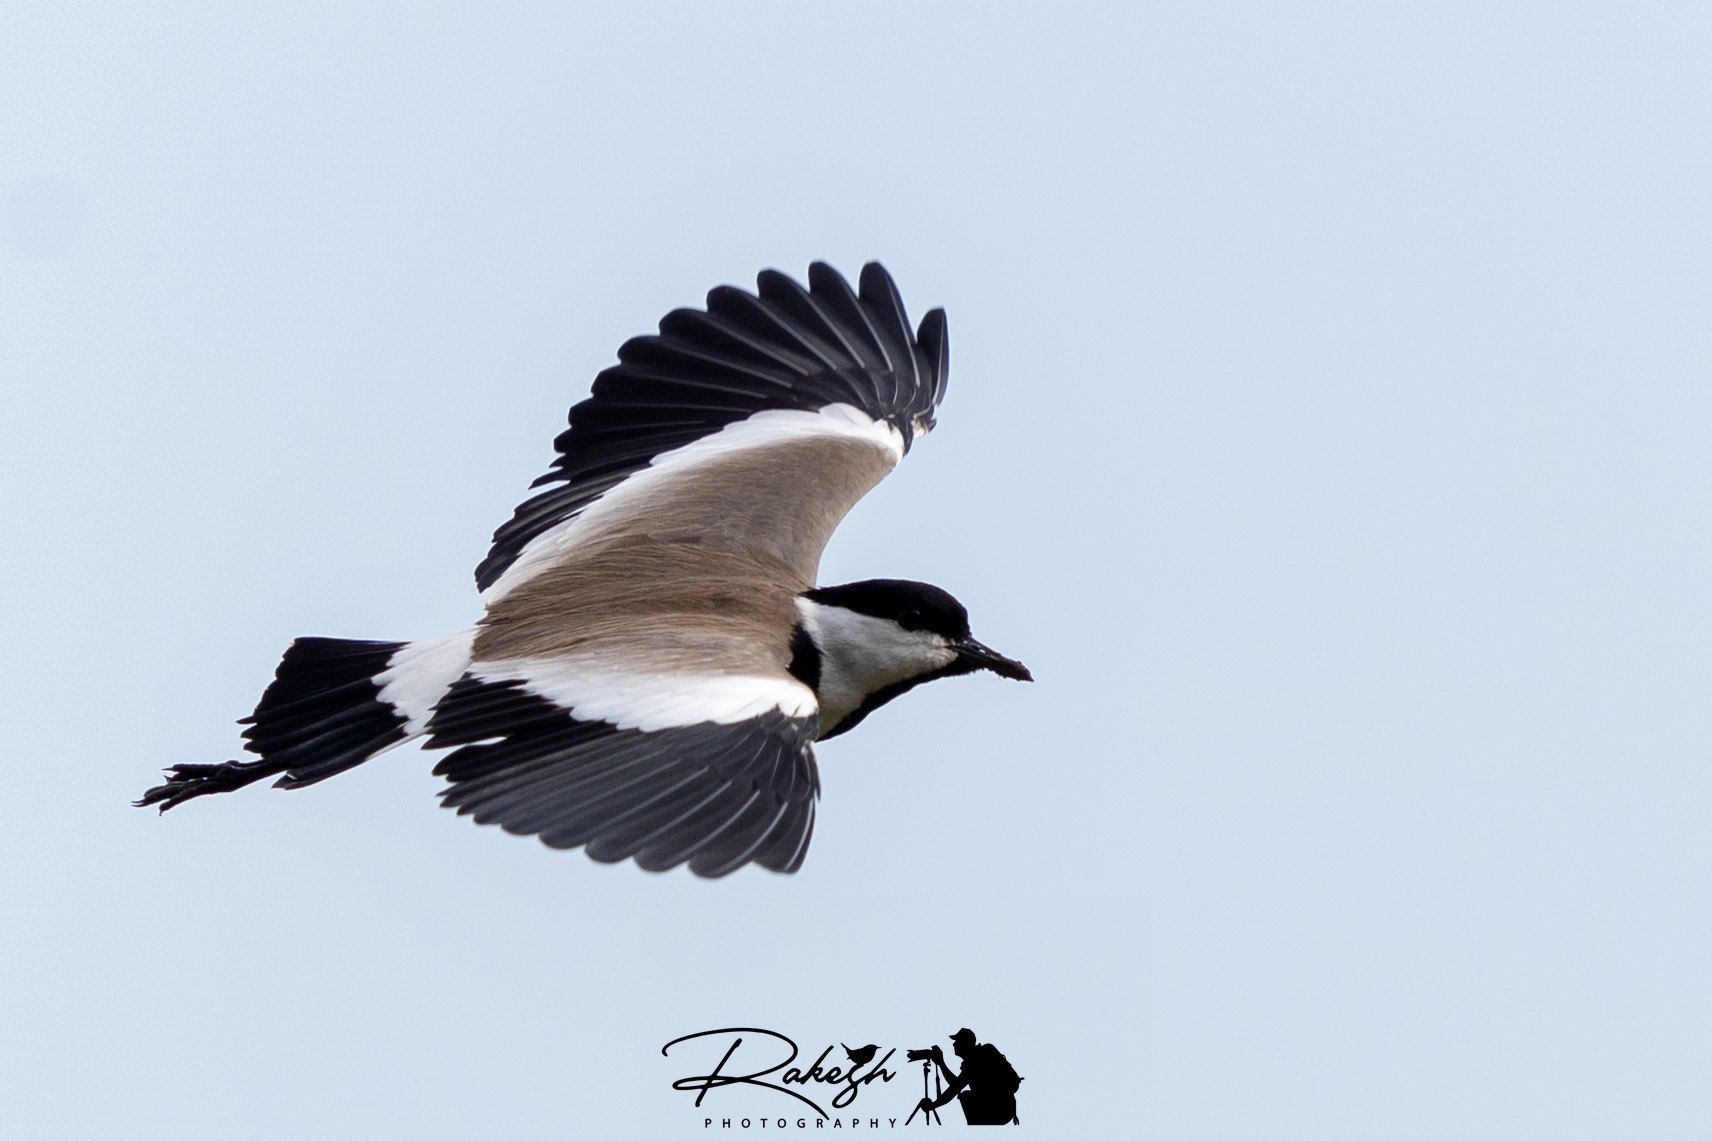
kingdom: Animalia
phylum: Chordata
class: Aves
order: Charadriiformes
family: Charadriidae
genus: Vanellus
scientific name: Vanellus spinosus
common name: Spur-winged lapwing
